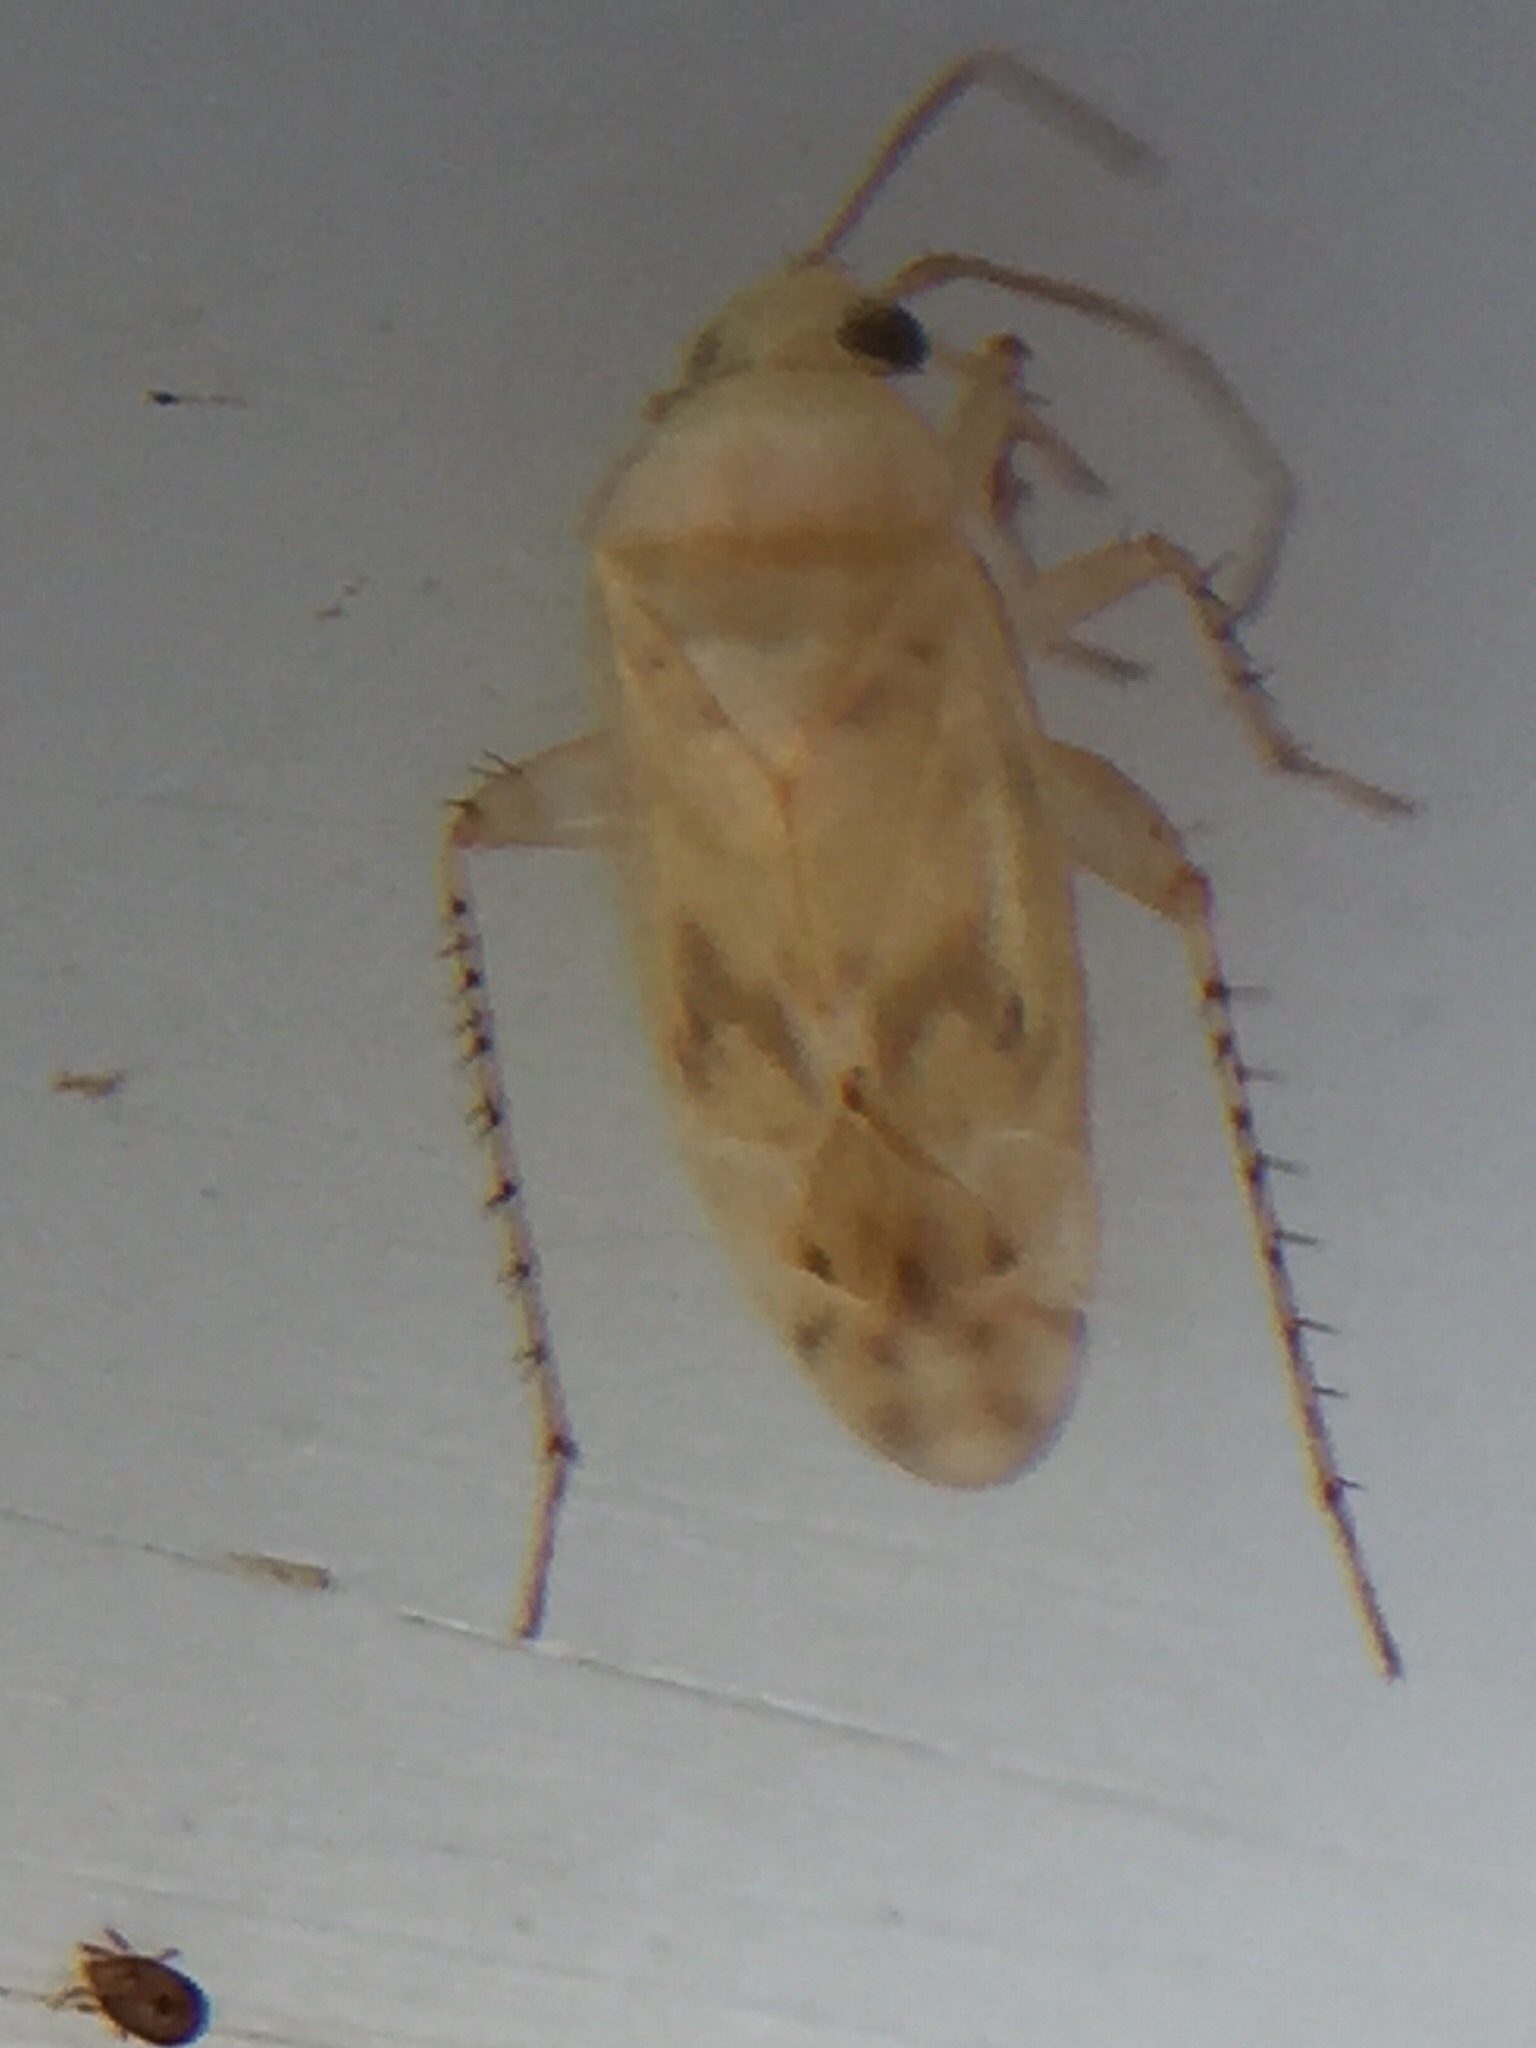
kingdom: Animalia
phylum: Arthropoda
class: Insecta
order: Hemiptera
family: Miridae
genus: Monospatha
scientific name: Monospatha distincta
